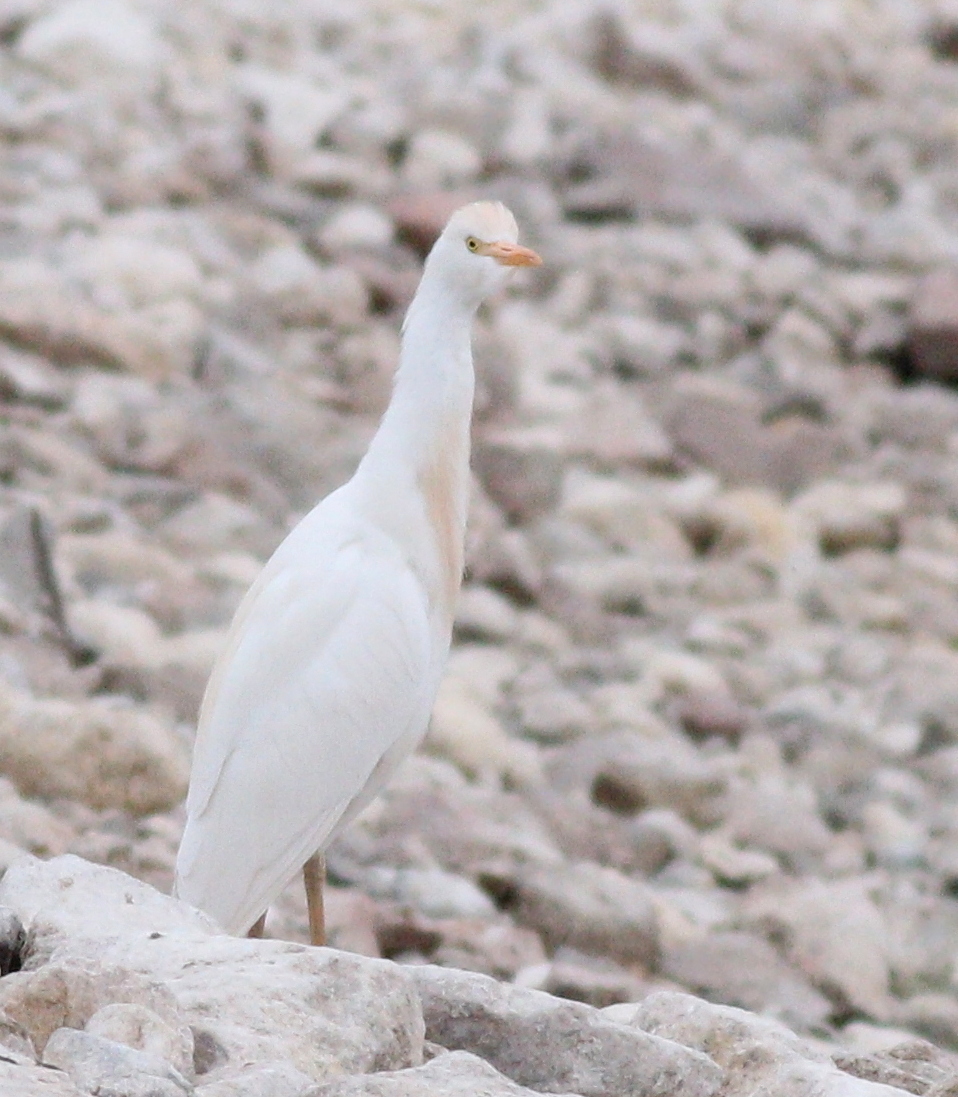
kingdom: Animalia
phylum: Chordata
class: Aves
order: Pelecaniformes
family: Ardeidae
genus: Bubulcus
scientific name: Bubulcus ibis
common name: Cattle egret
